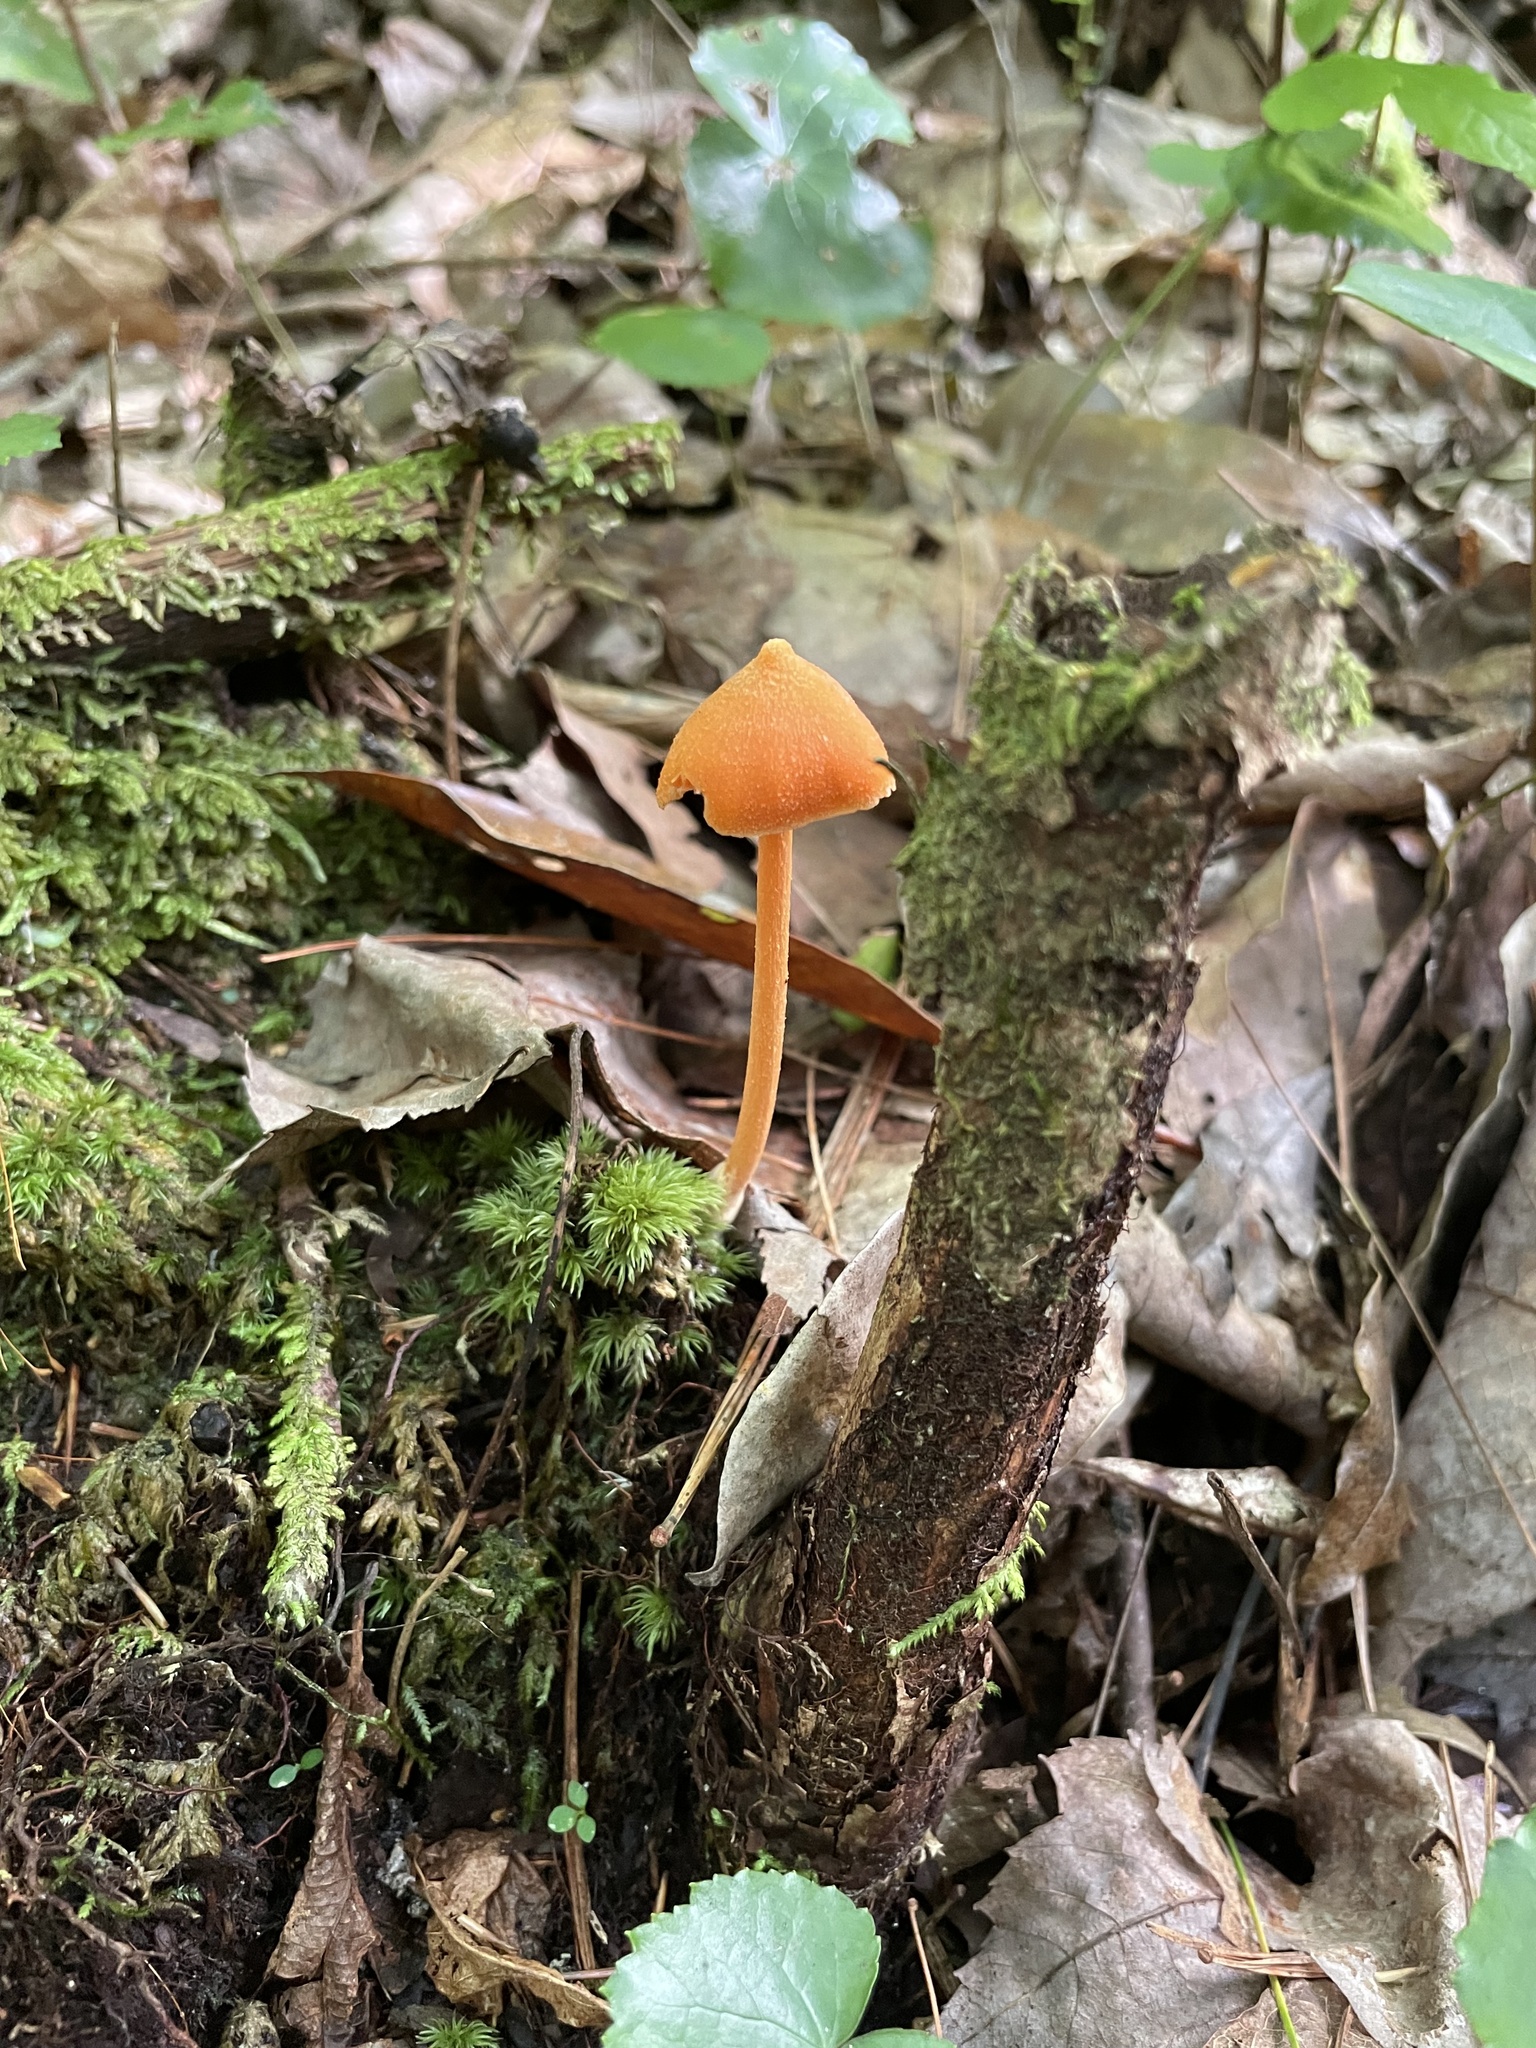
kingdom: Fungi
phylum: Basidiomycota
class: Agaricomycetes
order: Agaricales
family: Entolomataceae
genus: Entoloma
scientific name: Entoloma quadratum
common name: Salmon pinkgill
